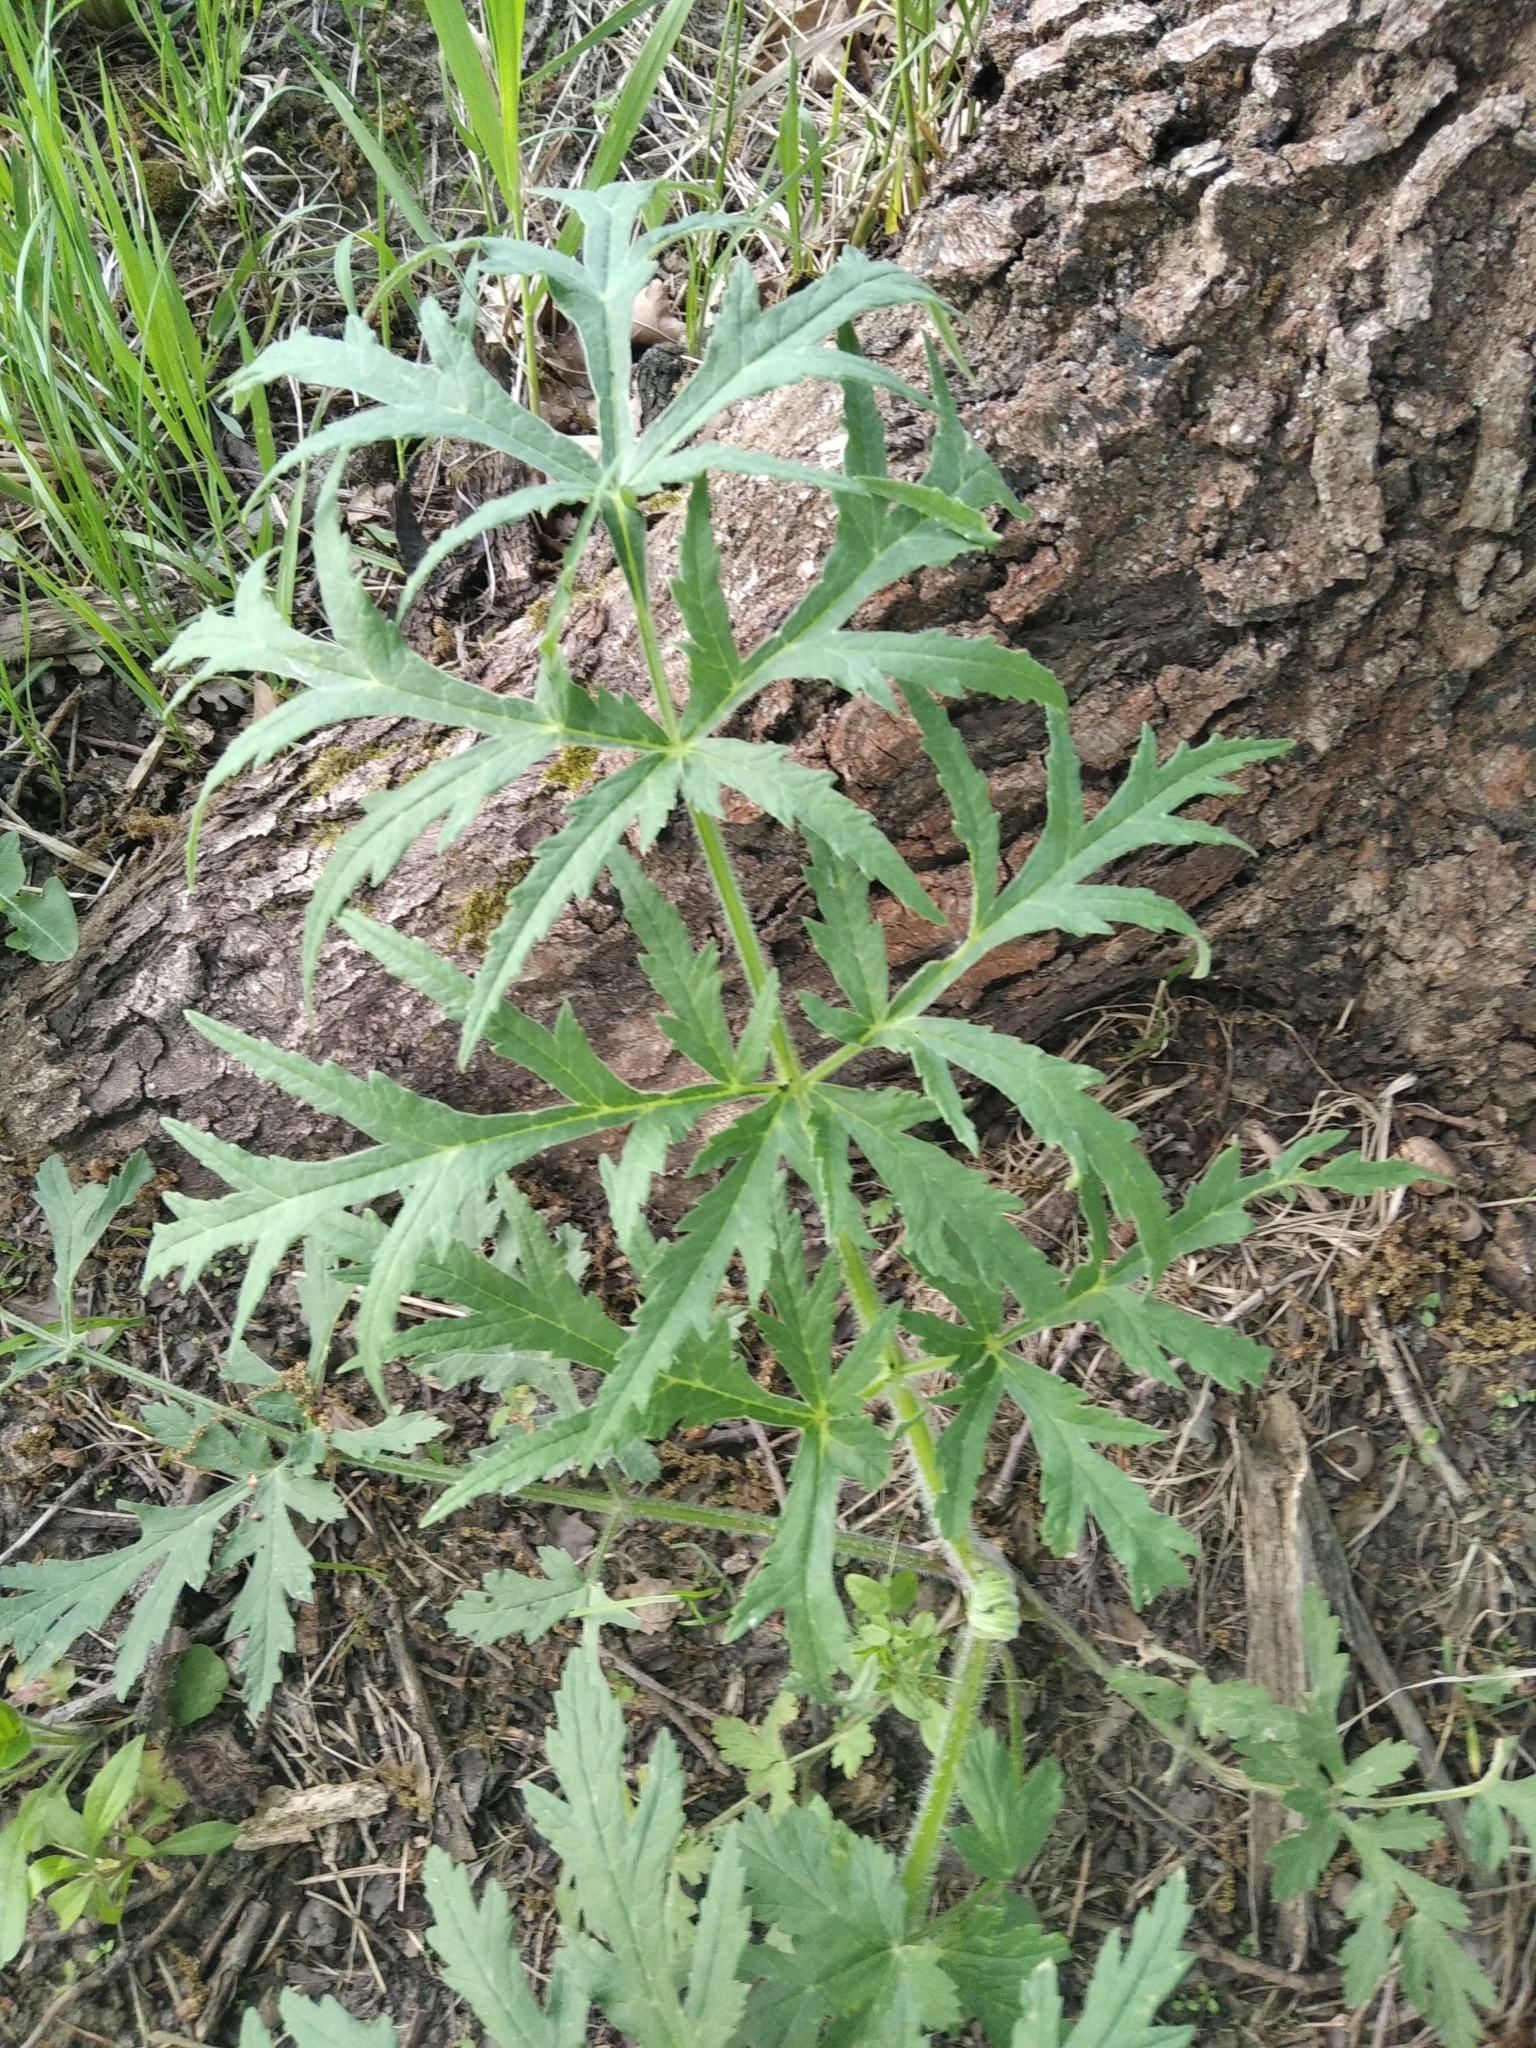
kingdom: Plantae
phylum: Tracheophyta
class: Magnoliopsida
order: Apiales
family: Apiaceae
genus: Heracleum
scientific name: Heracleum sphondylium
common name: Hogweed
